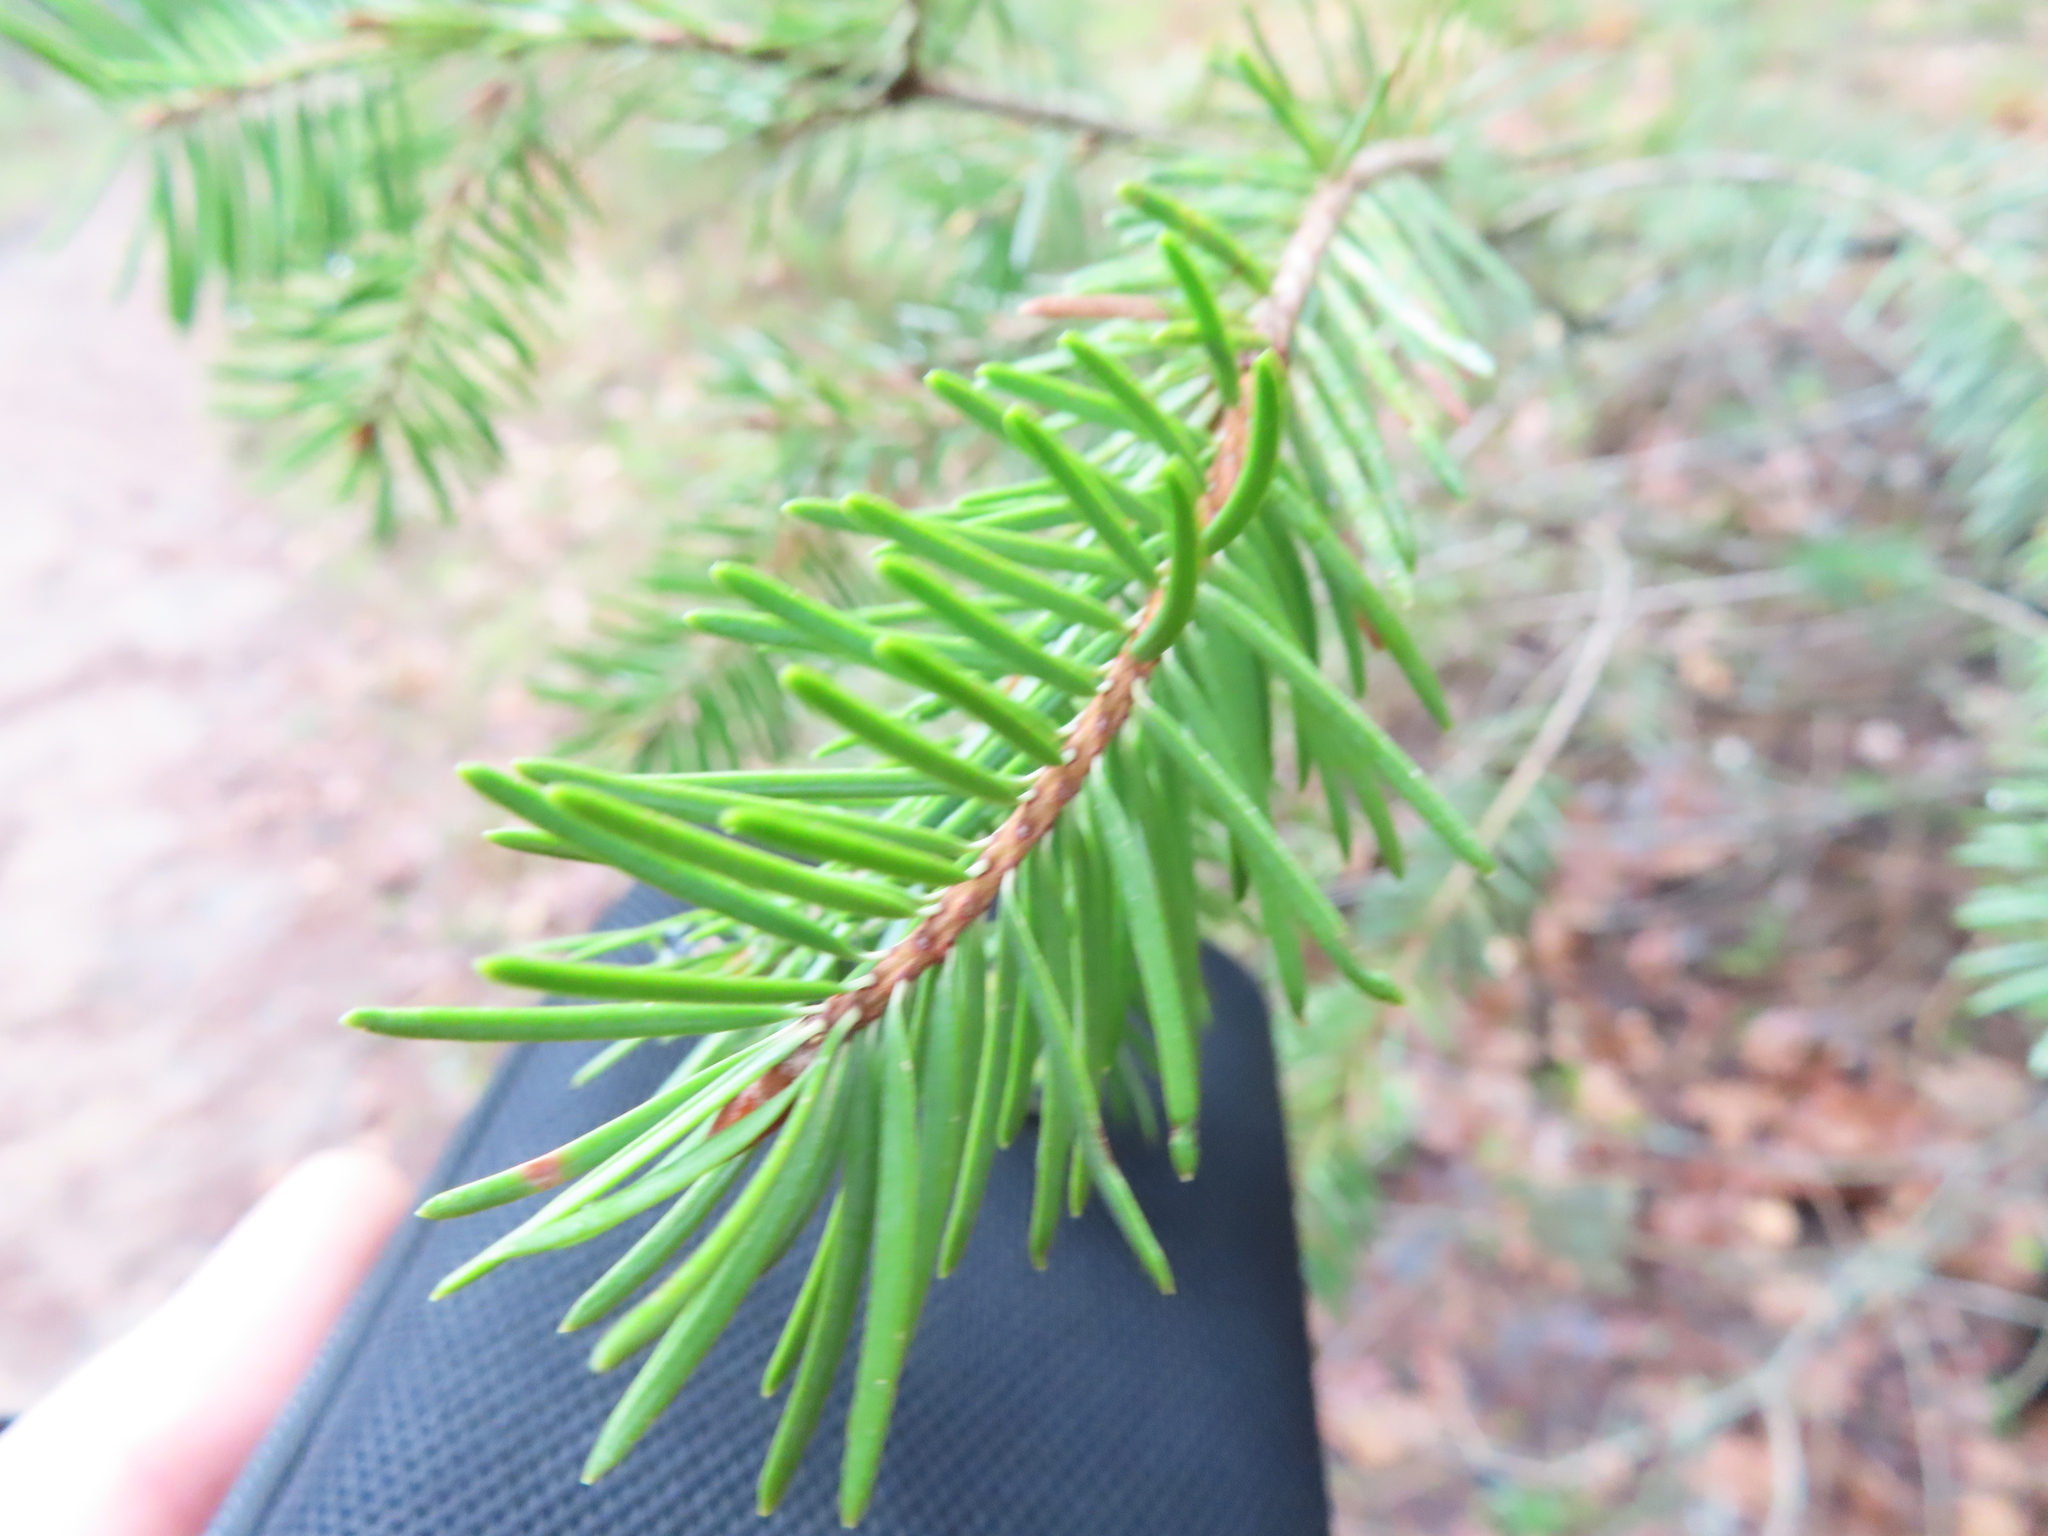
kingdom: Plantae
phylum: Tracheophyta
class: Pinopsida
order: Pinales
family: Pinaceae
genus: Pseudotsuga
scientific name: Pseudotsuga menziesii
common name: Douglas fir
